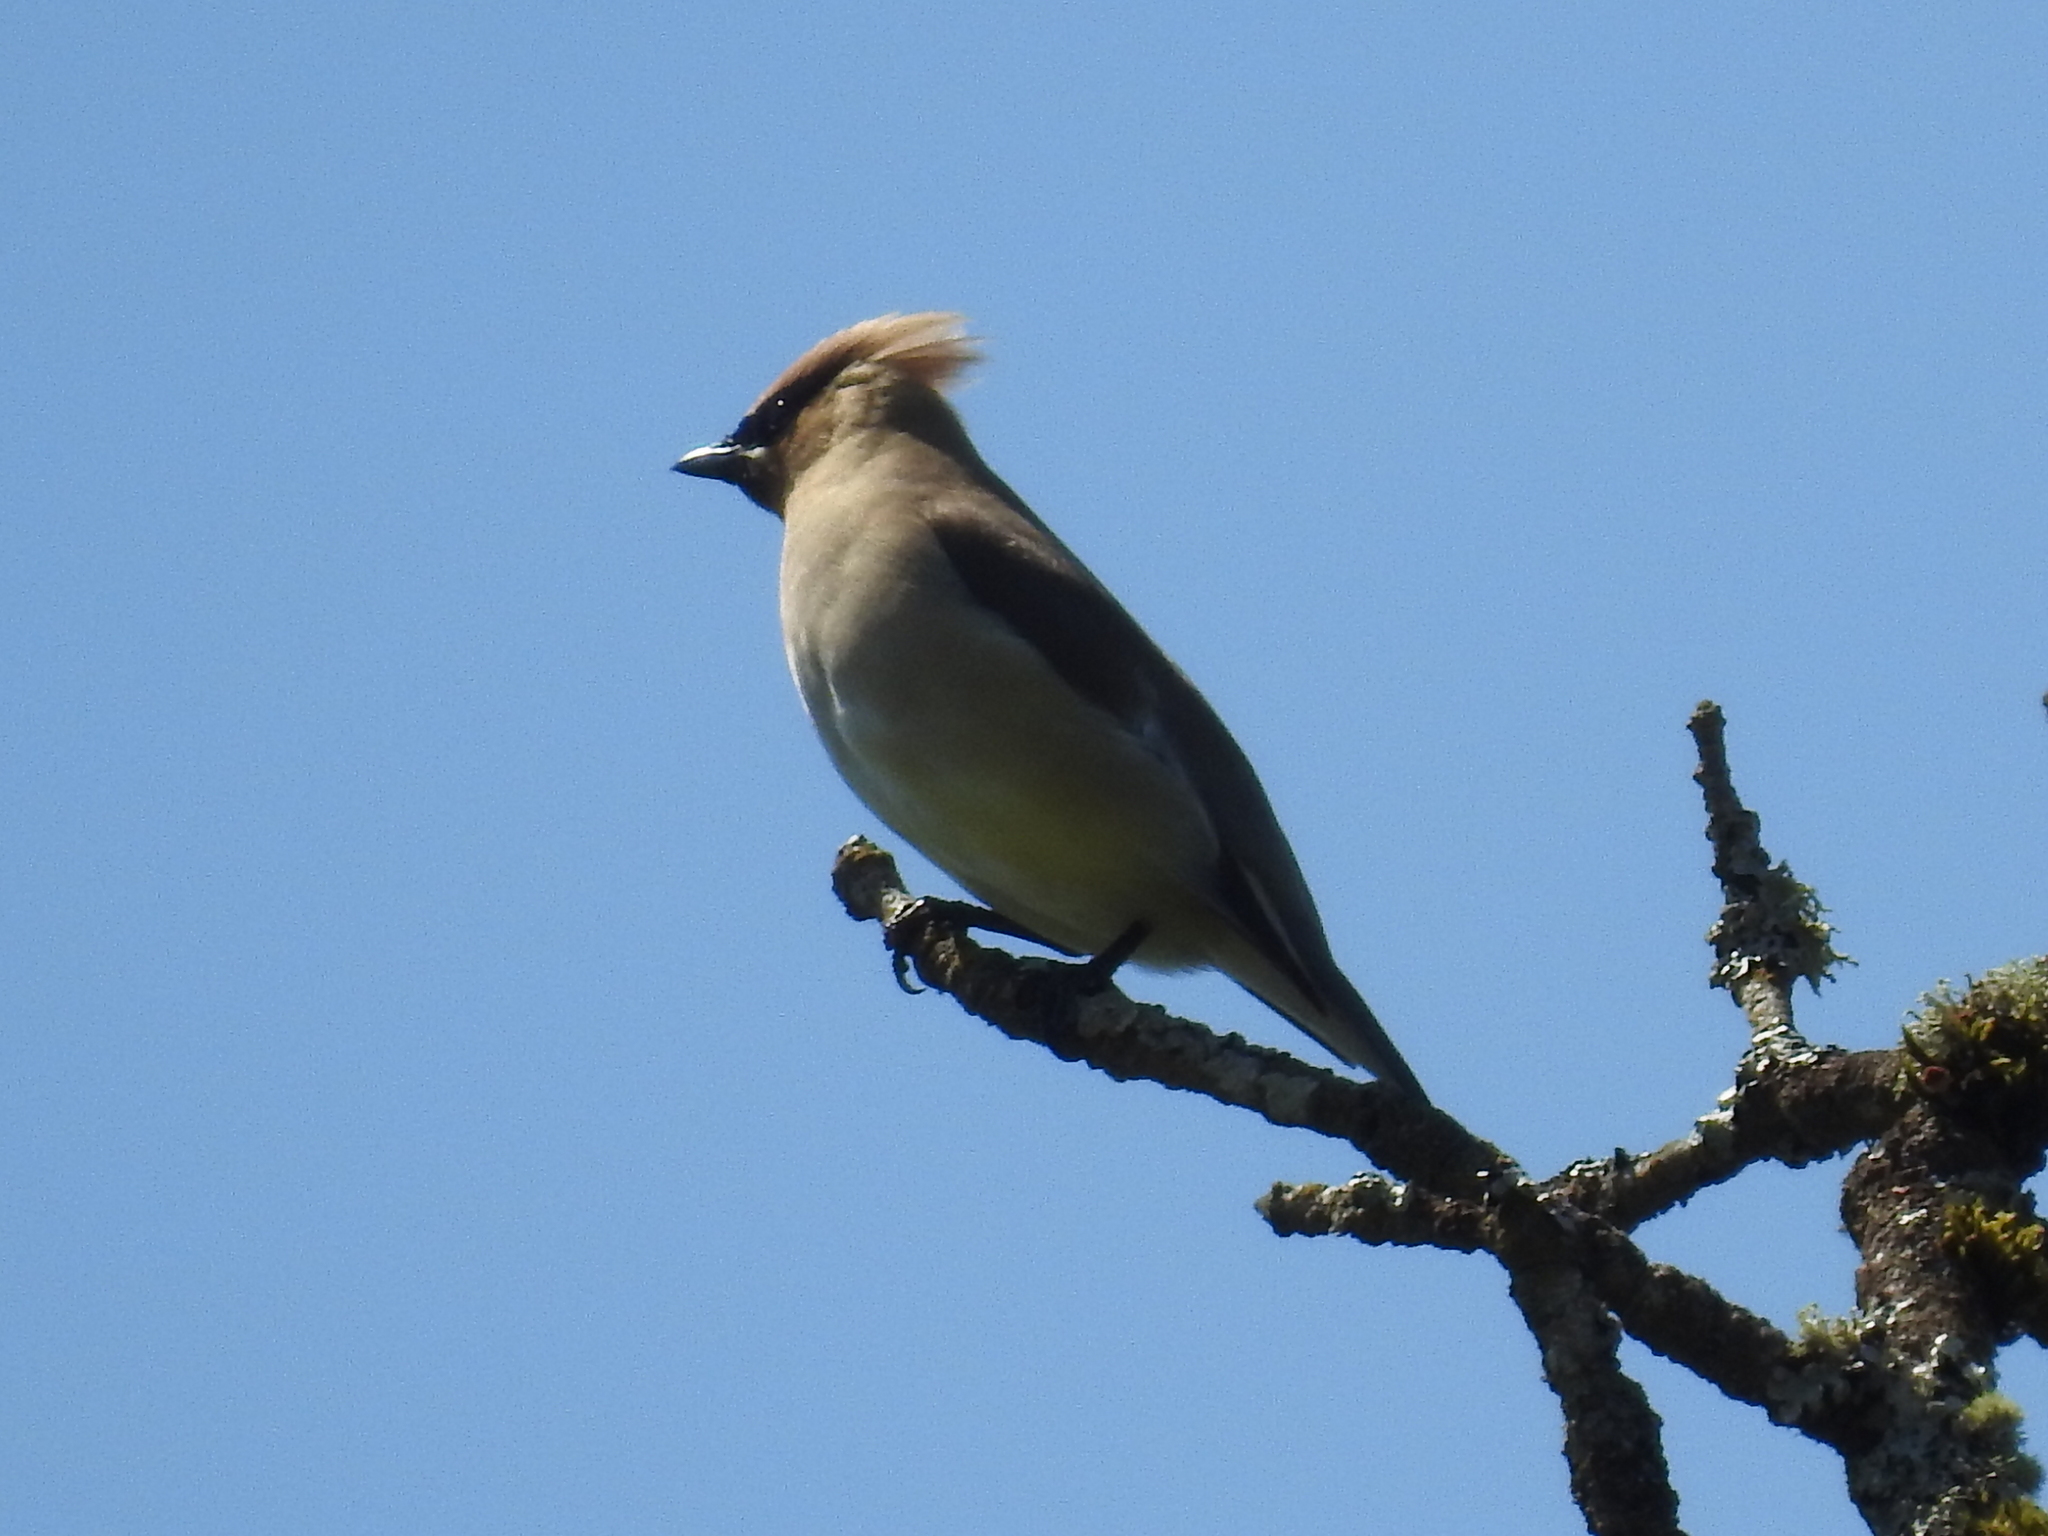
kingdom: Animalia
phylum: Chordata
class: Aves
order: Passeriformes
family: Bombycillidae
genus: Bombycilla
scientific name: Bombycilla cedrorum
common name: Cedar waxwing
